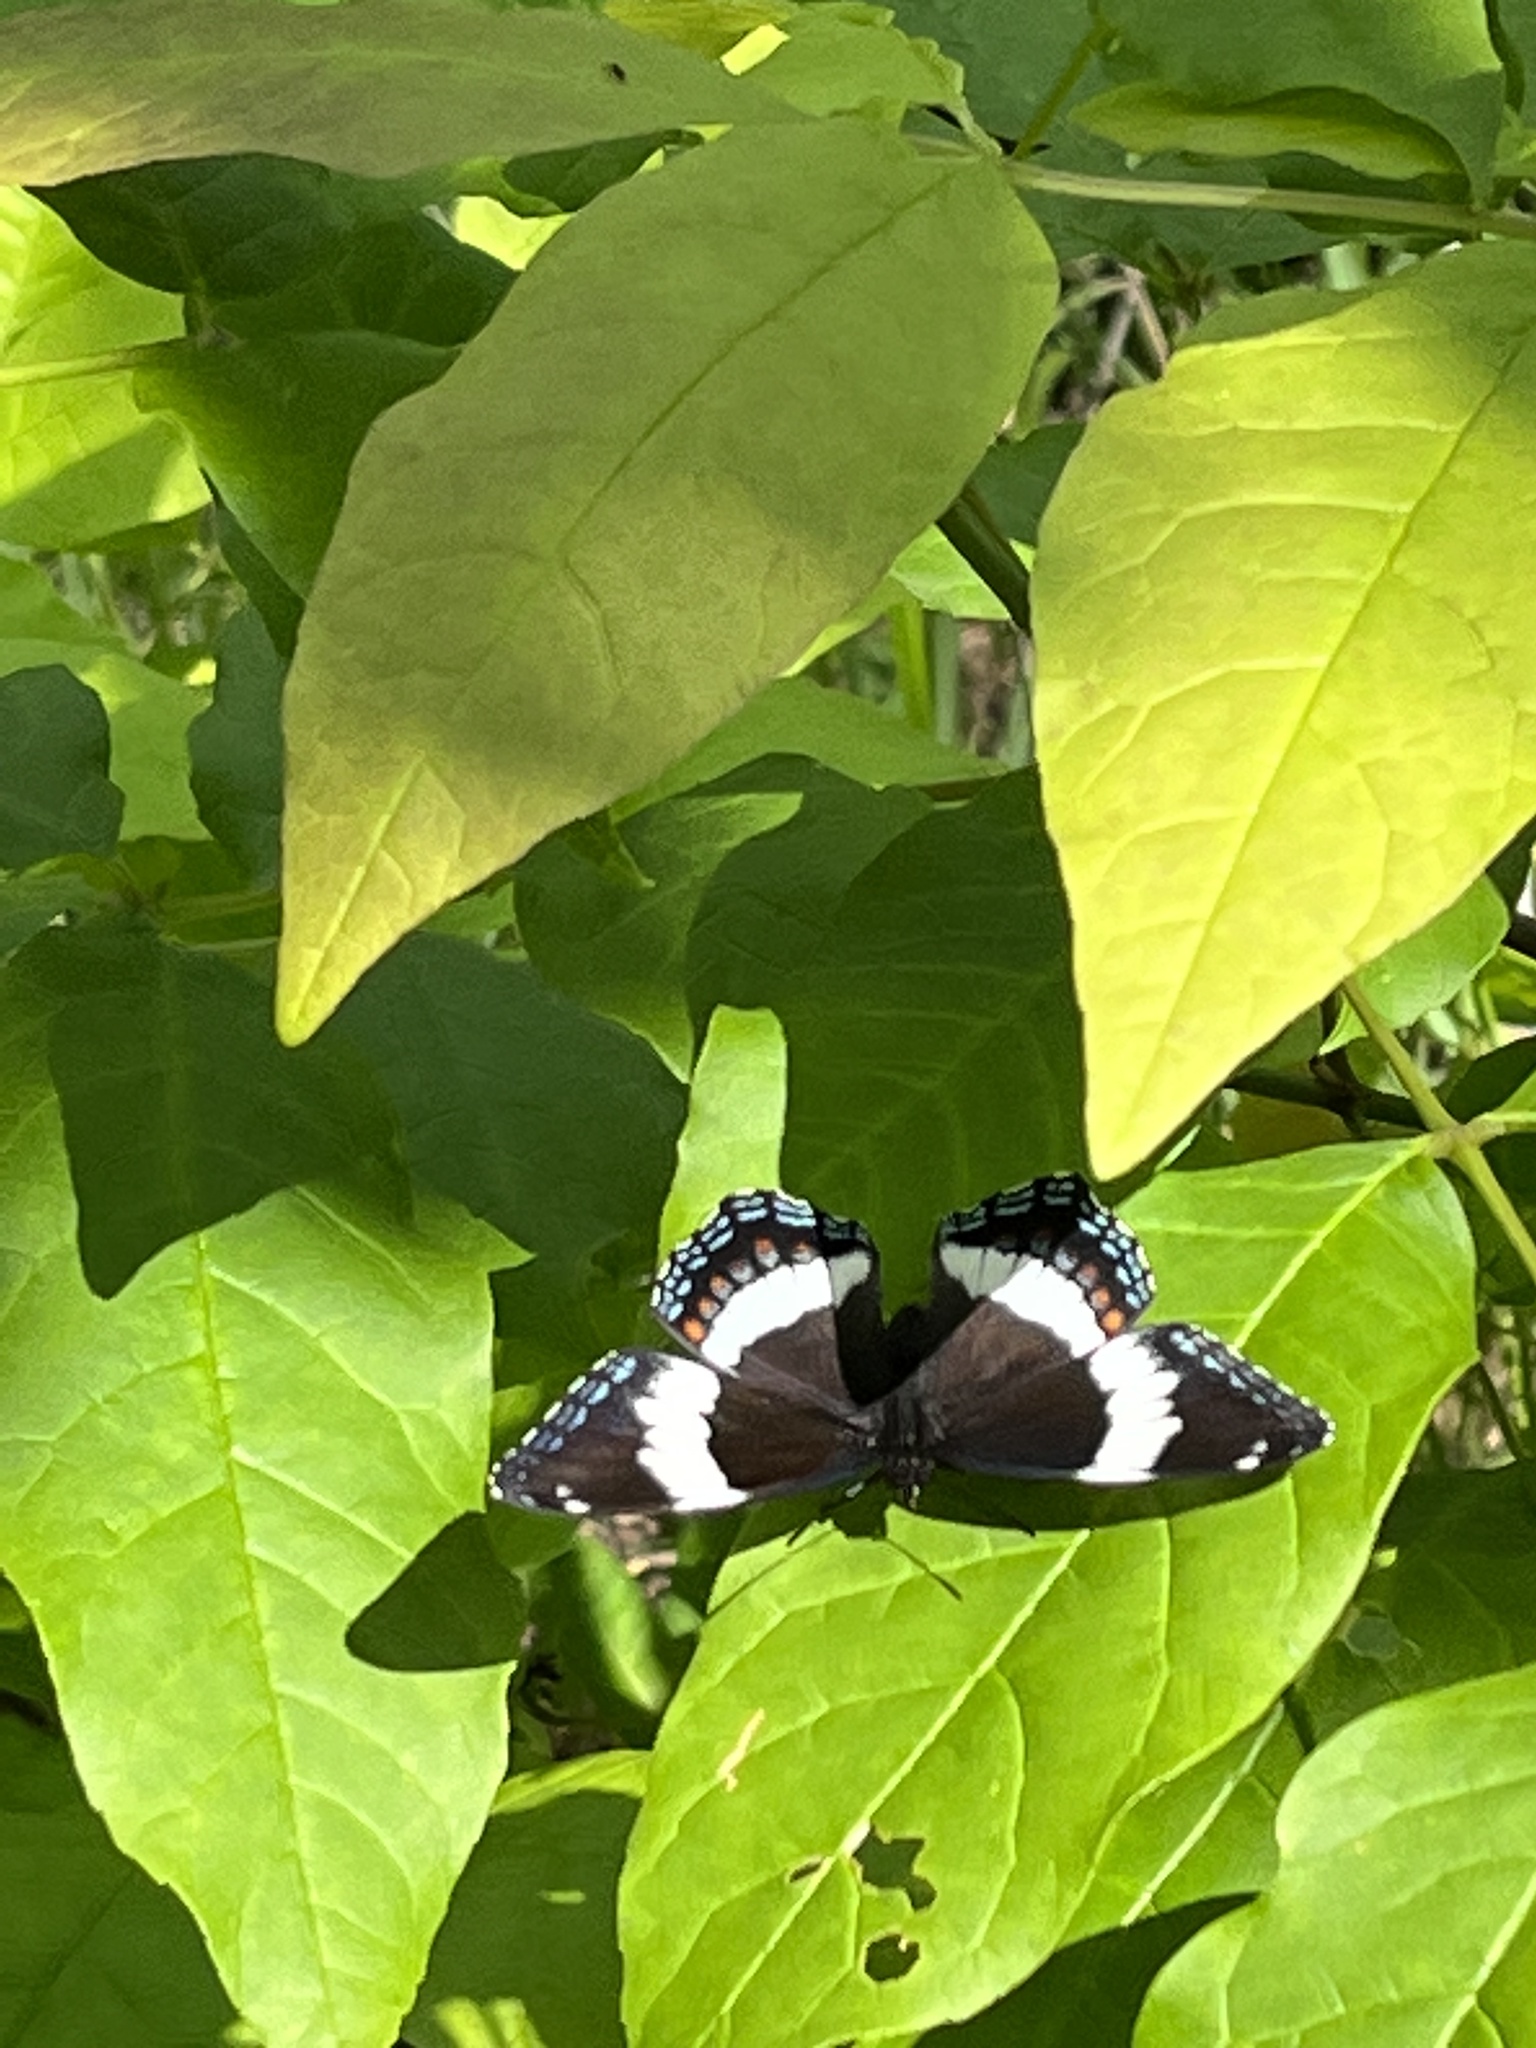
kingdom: Animalia
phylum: Arthropoda
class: Insecta
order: Lepidoptera
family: Nymphalidae
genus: Limenitis
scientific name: Limenitis arthemis
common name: Red-spotted admiral
